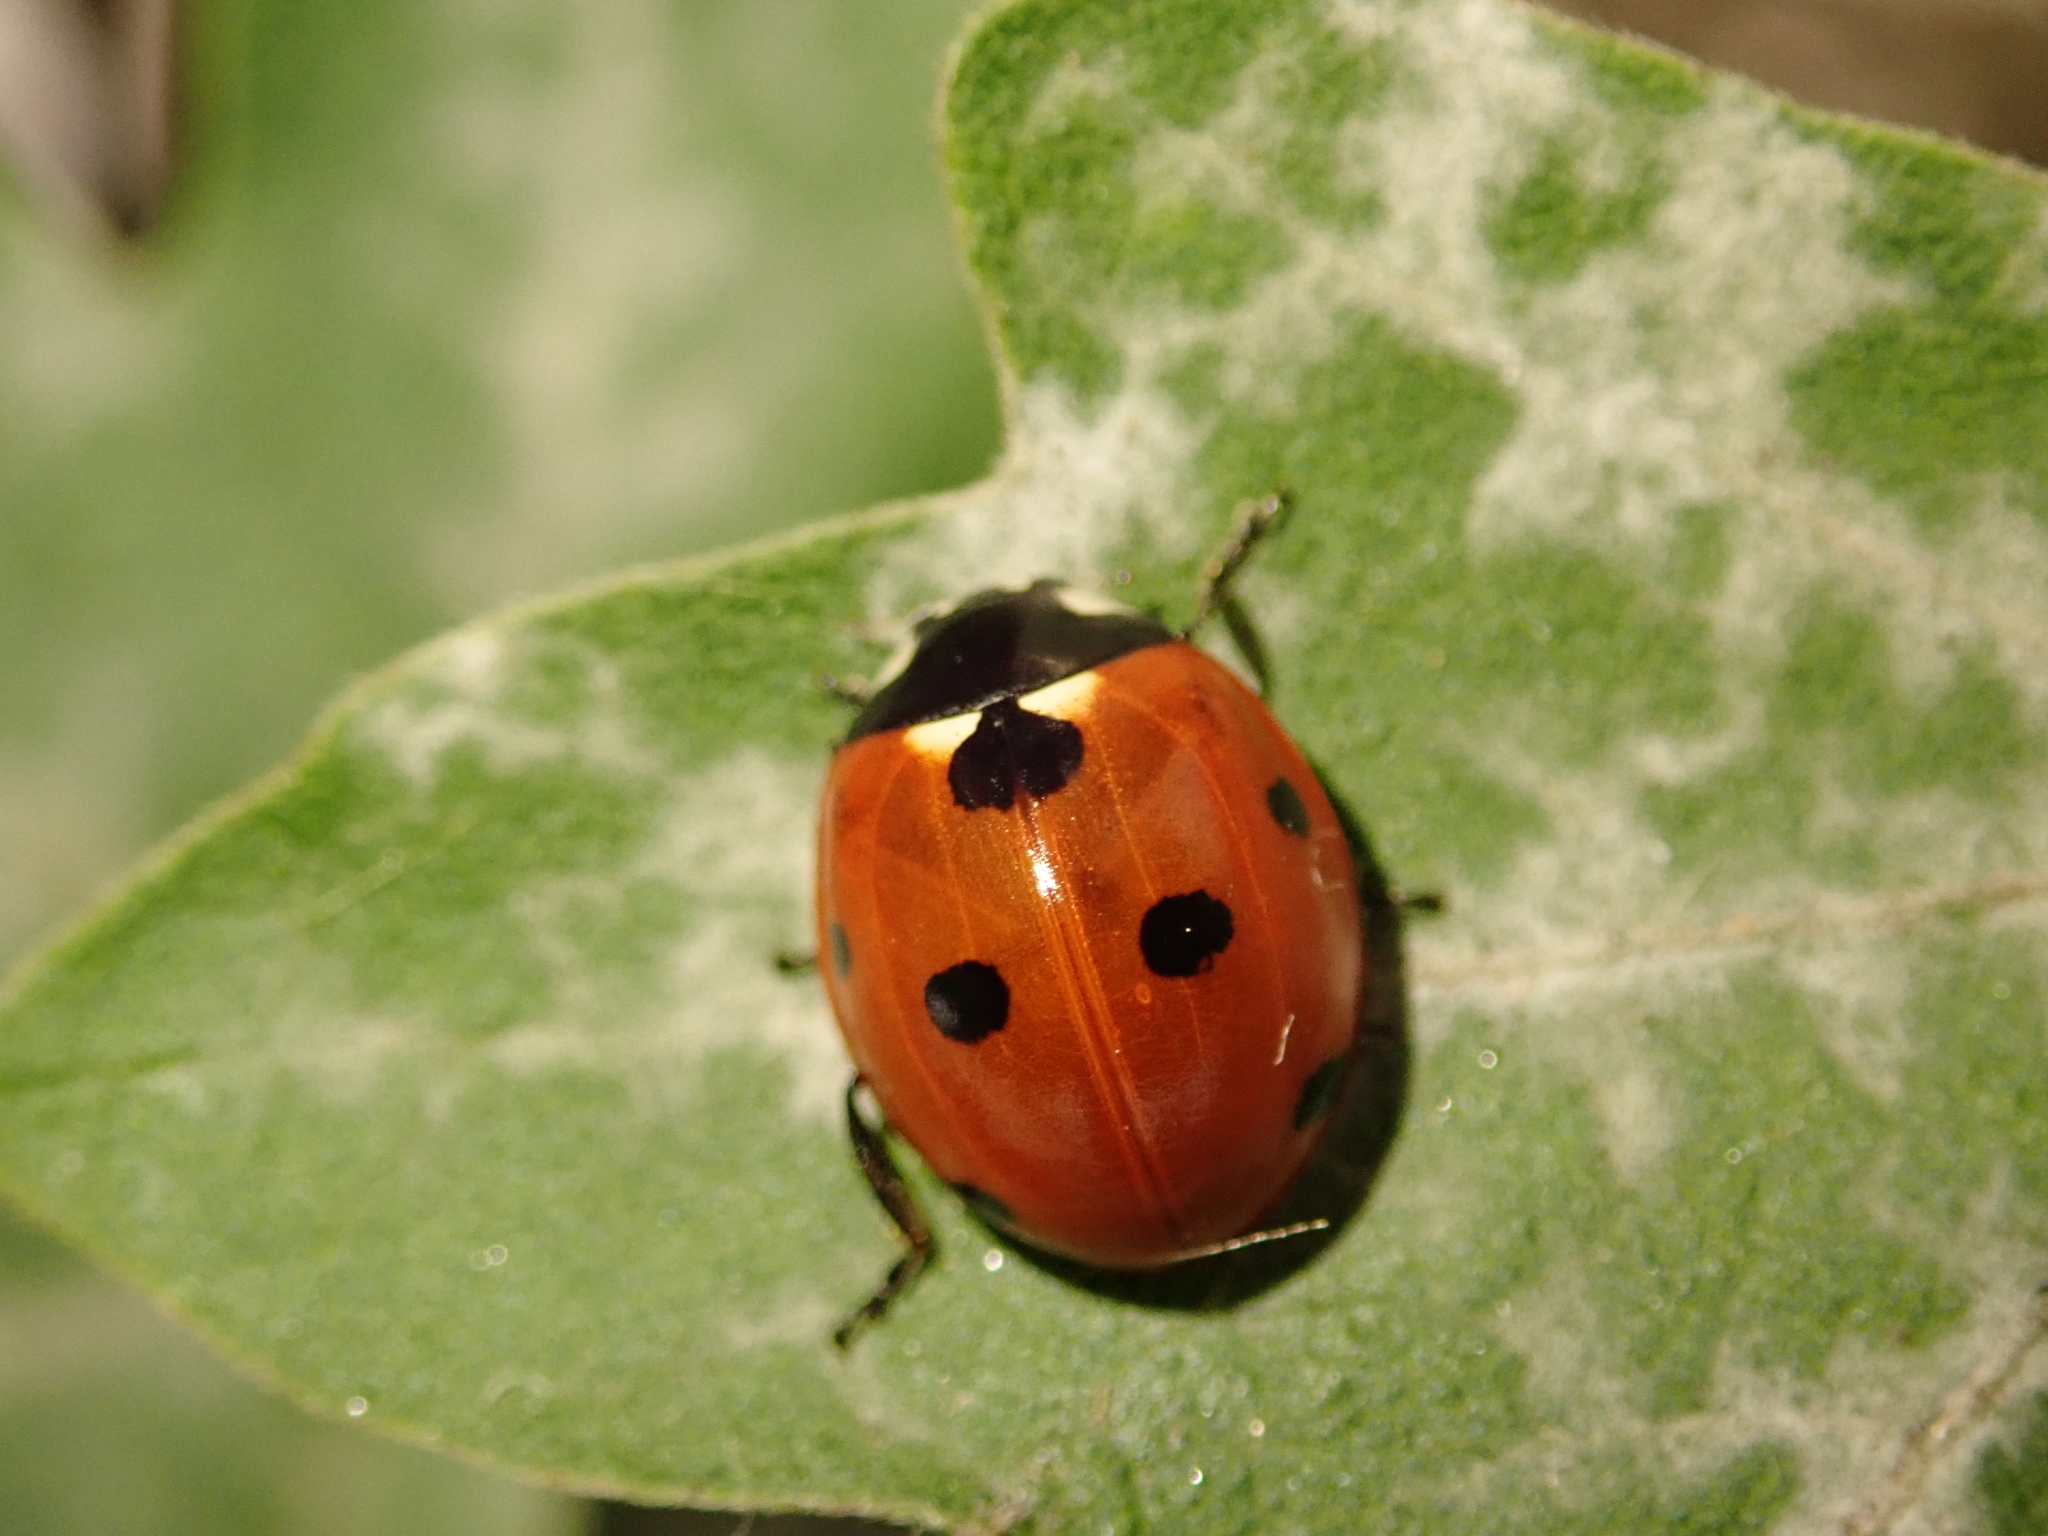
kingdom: Animalia
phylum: Arthropoda
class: Insecta
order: Coleoptera
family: Coccinellidae
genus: Coccinella
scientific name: Coccinella septempunctata
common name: Sevenspotted lady beetle
